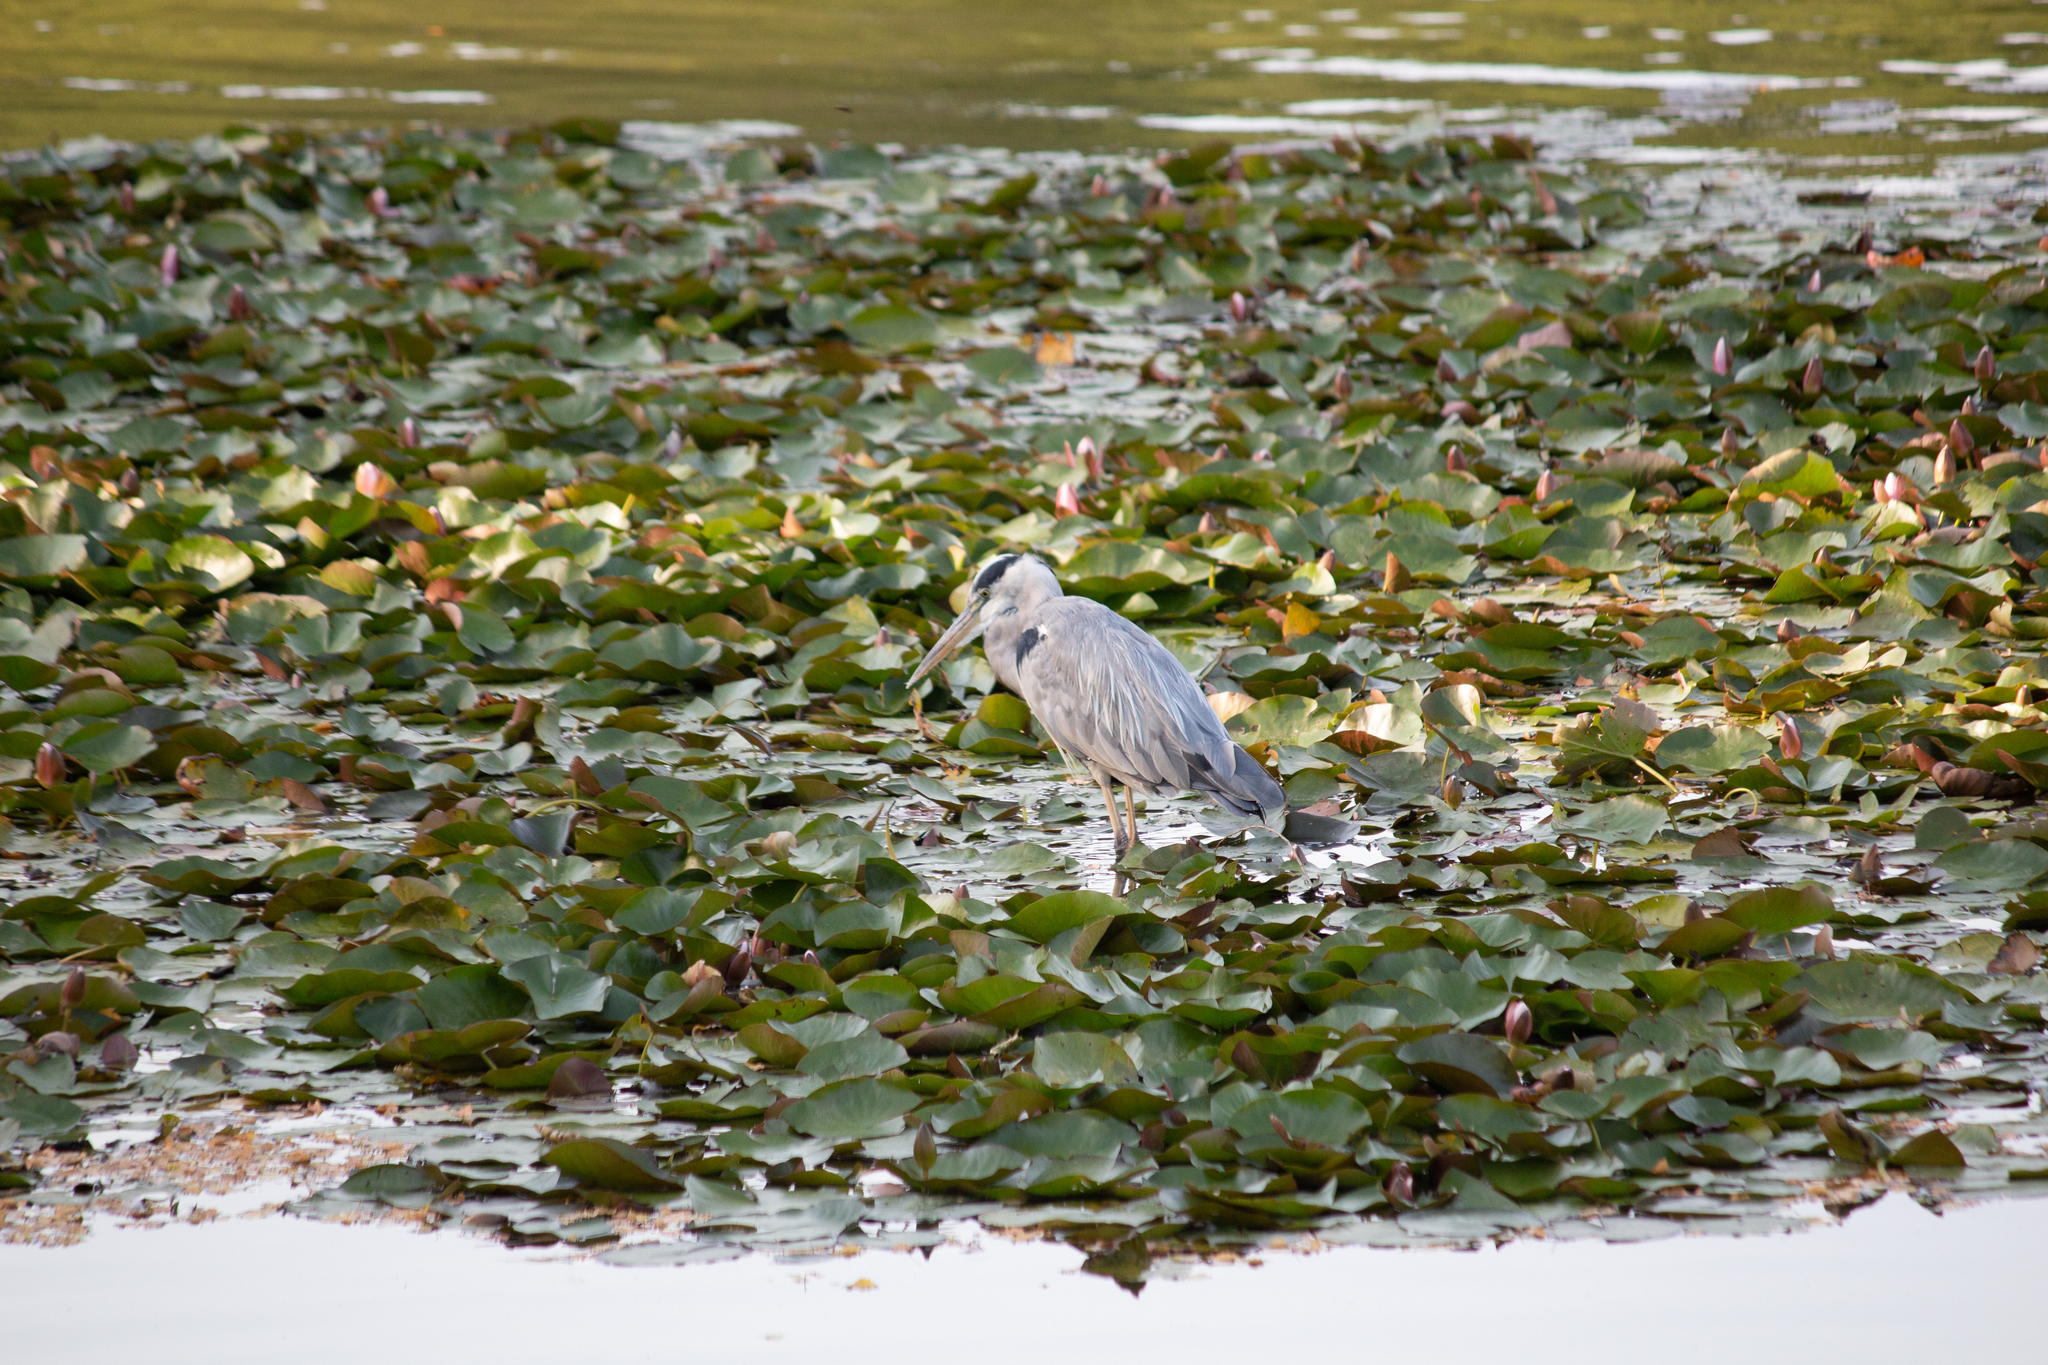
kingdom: Animalia
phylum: Chordata
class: Aves
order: Pelecaniformes
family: Ardeidae
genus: Ardea
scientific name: Ardea cinerea
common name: Grey heron
